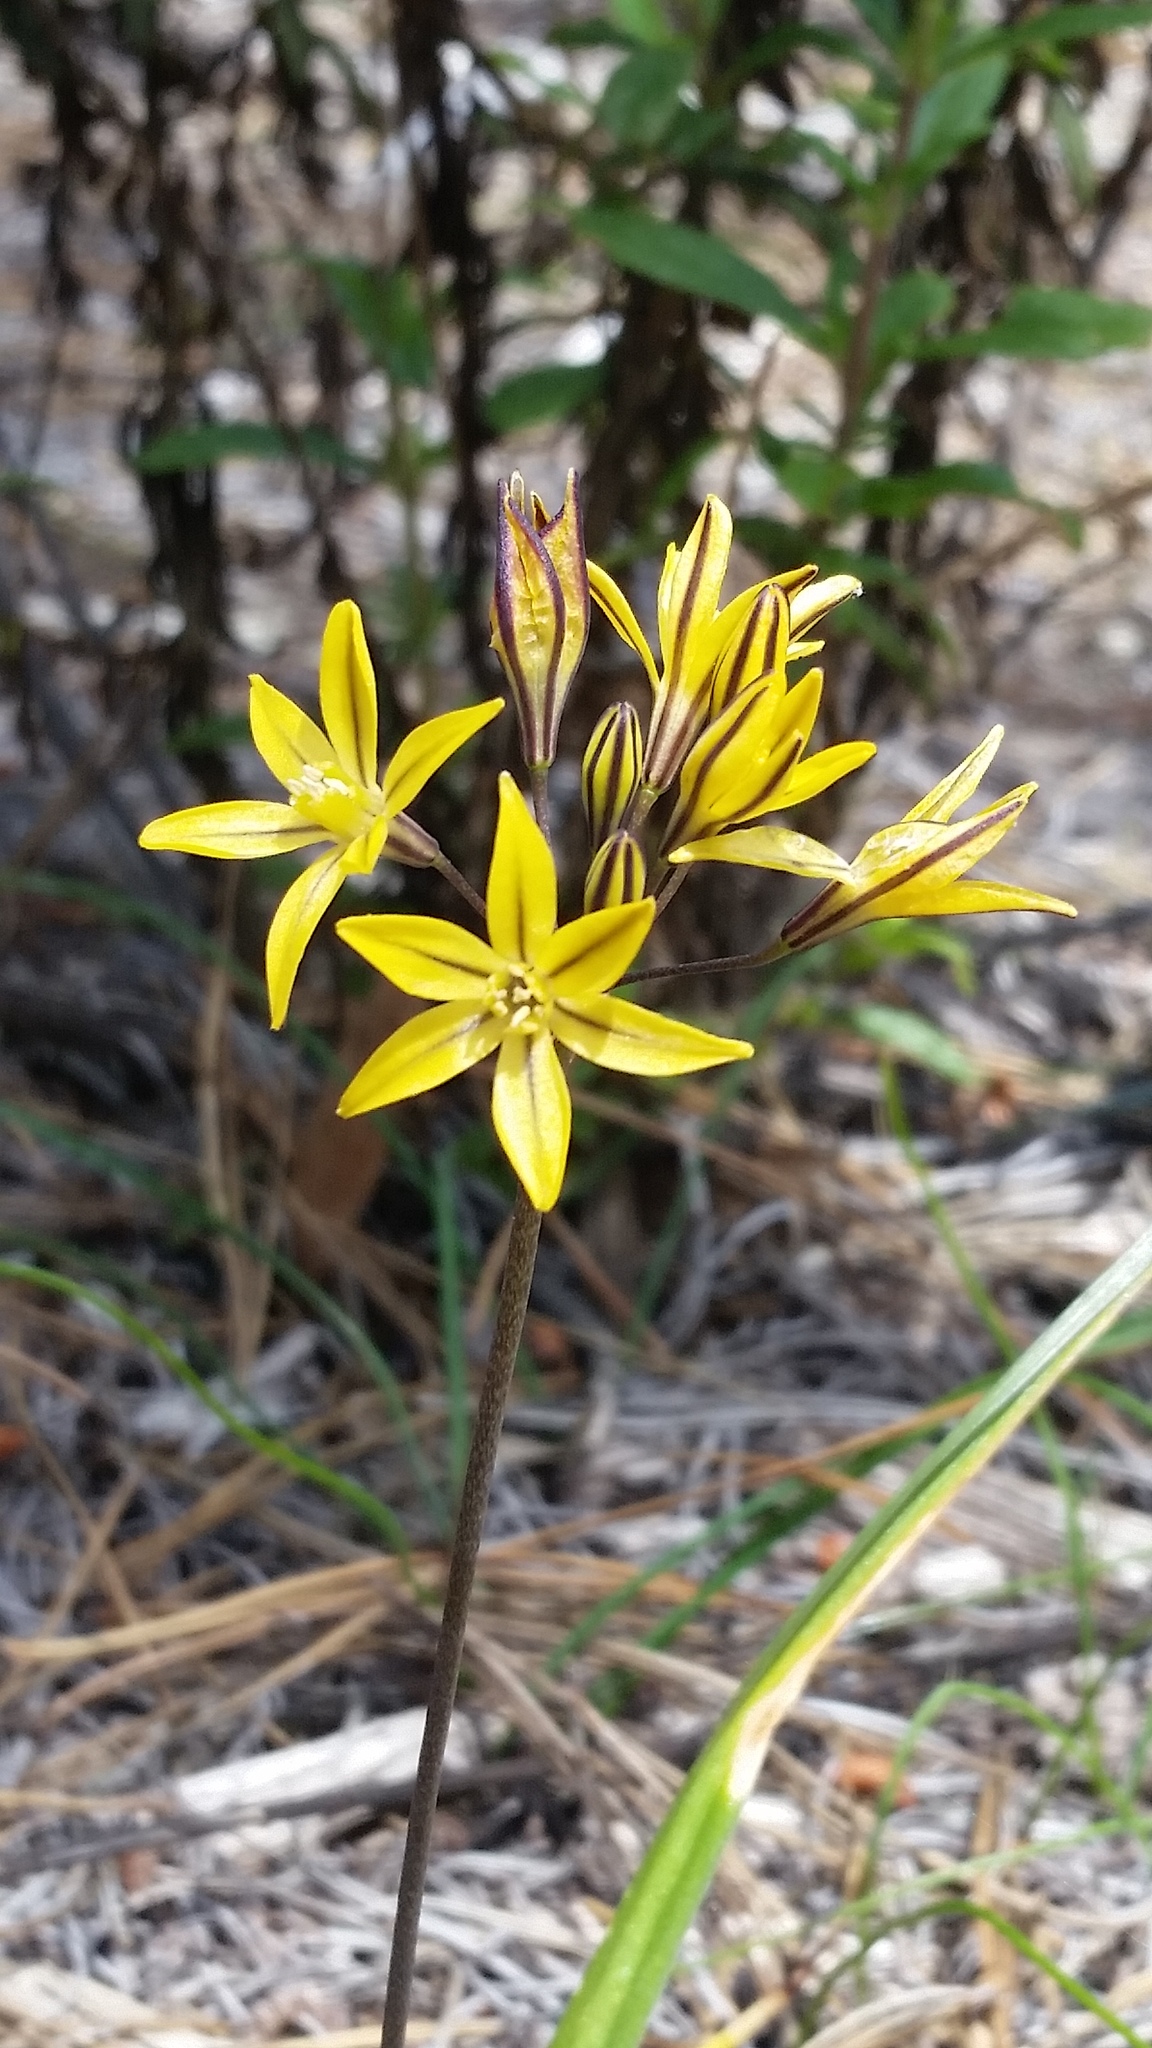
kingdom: Plantae
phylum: Tracheophyta
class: Liliopsida
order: Asparagales
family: Asparagaceae
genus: Triteleia
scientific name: Triteleia lugens
